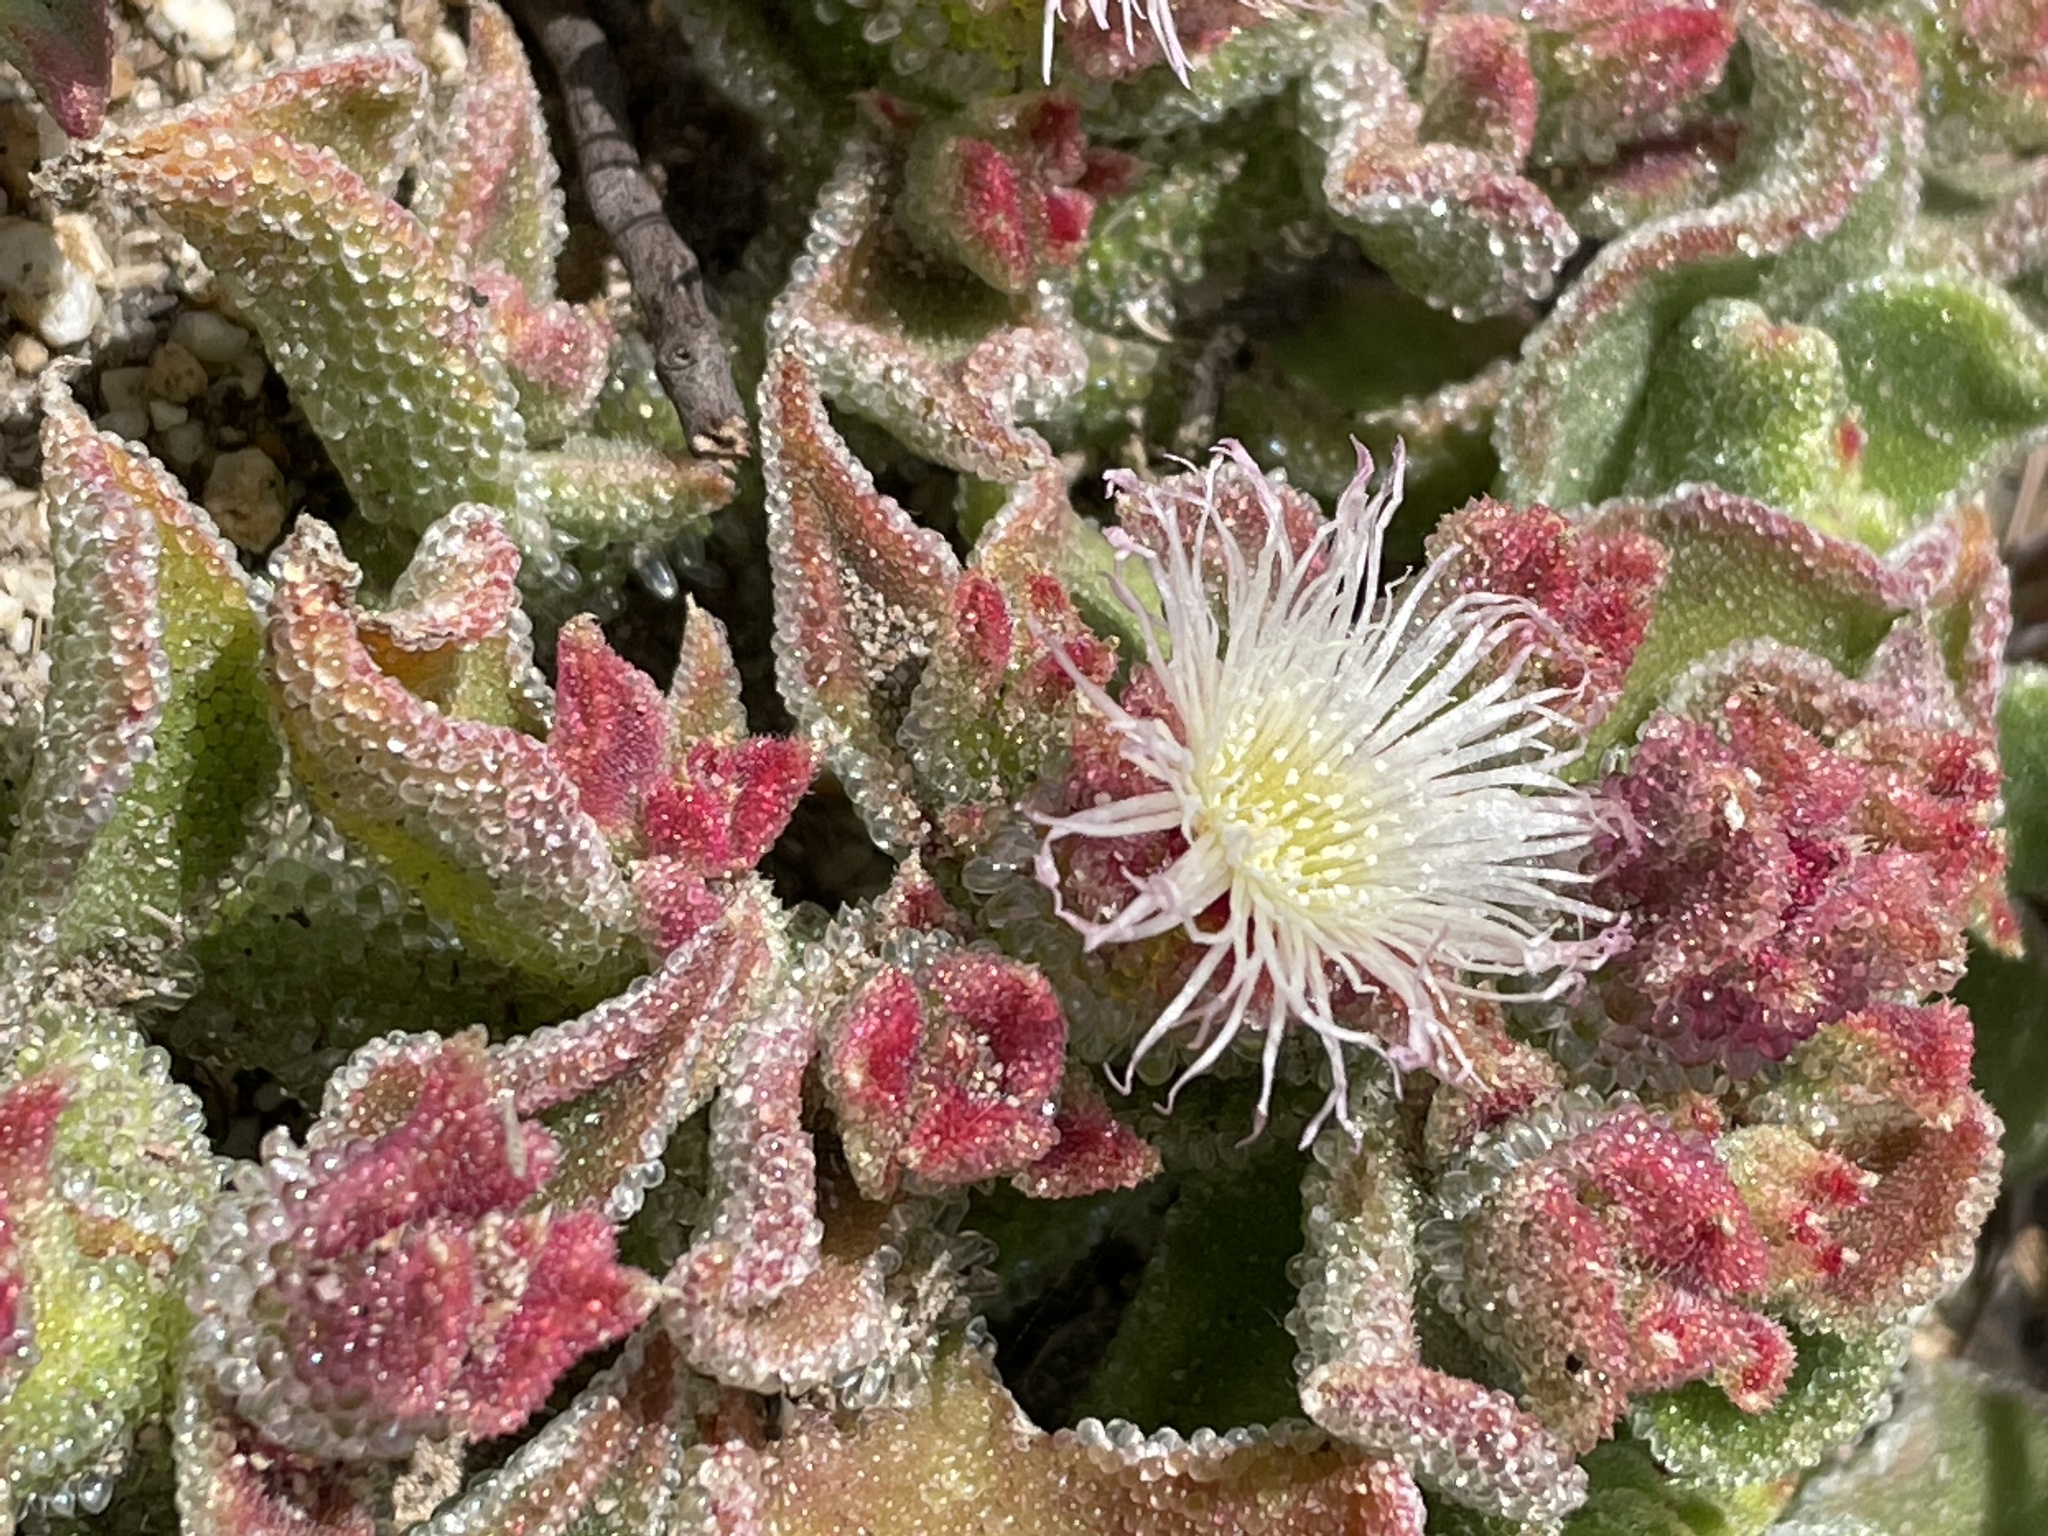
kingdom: Plantae
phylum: Tracheophyta
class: Magnoliopsida
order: Caryophyllales
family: Aizoaceae
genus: Mesembryanthemum
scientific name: Mesembryanthemum crystallinum
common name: Common iceplant
